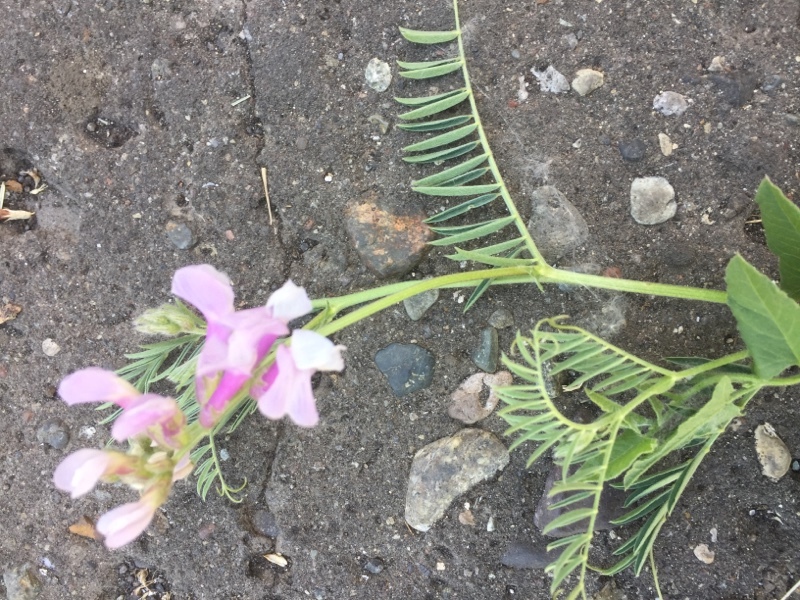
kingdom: Plantae
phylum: Tracheophyta
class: Magnoliopsida
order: Fabales
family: Fabaceae
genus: Lathyrus
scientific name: Lathyrus armenus
